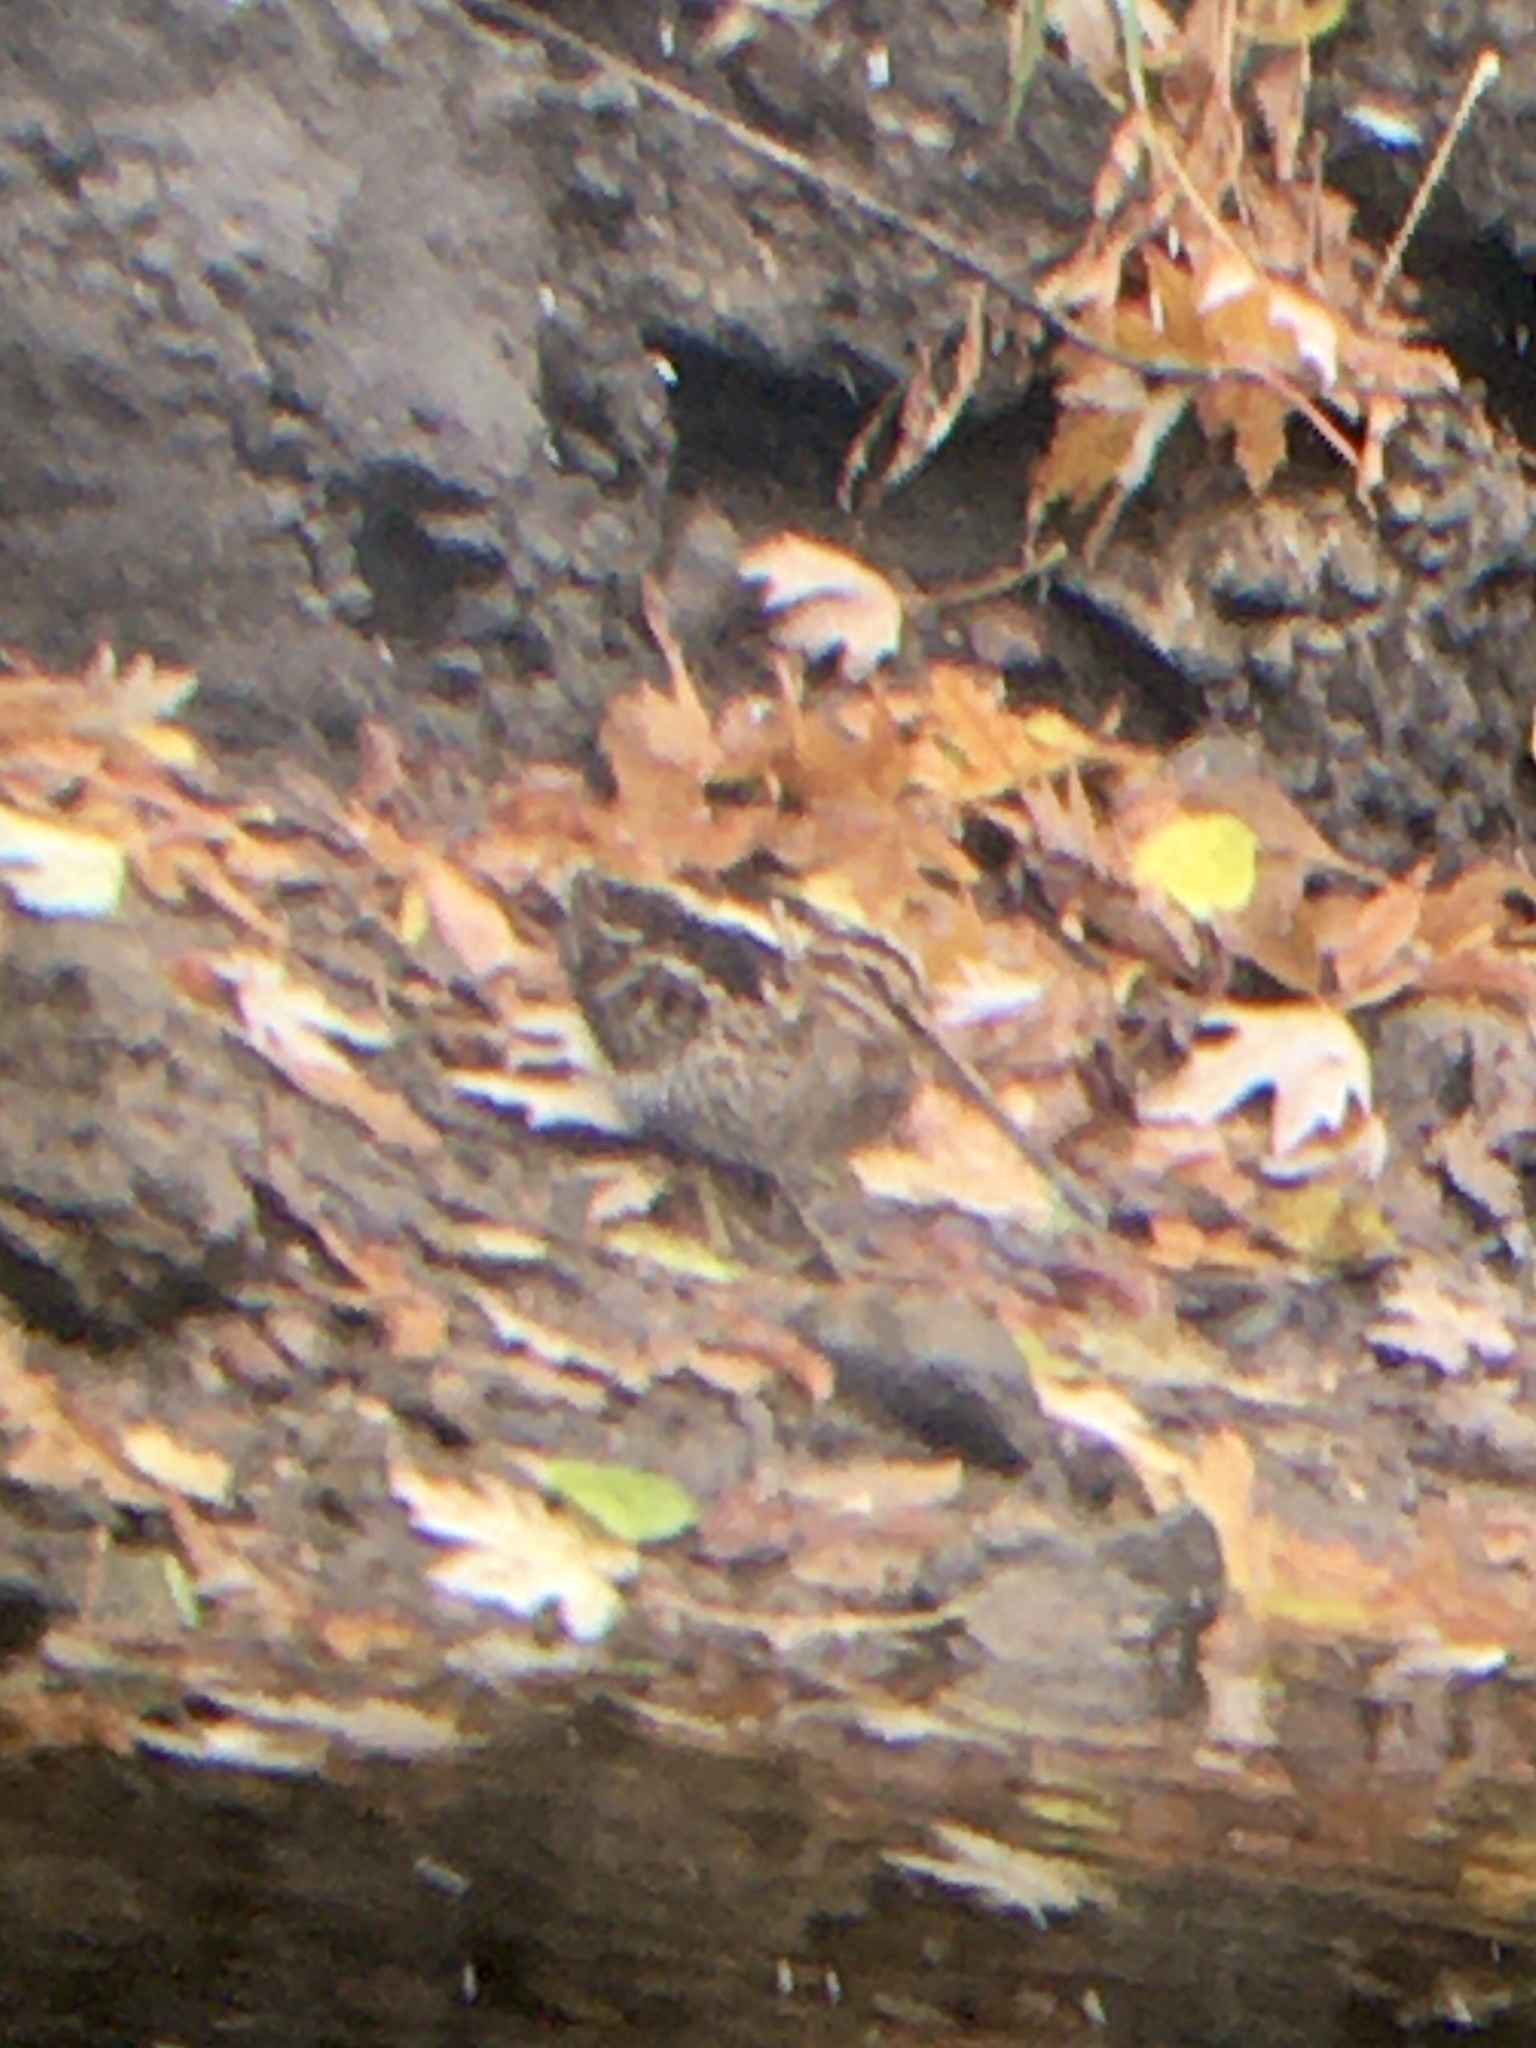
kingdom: Animalia
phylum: Chordata
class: Aves
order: Charadriiformes
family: Scolopacidae
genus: Gallinago
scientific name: Gallinago delicata
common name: Wilson's snipe
